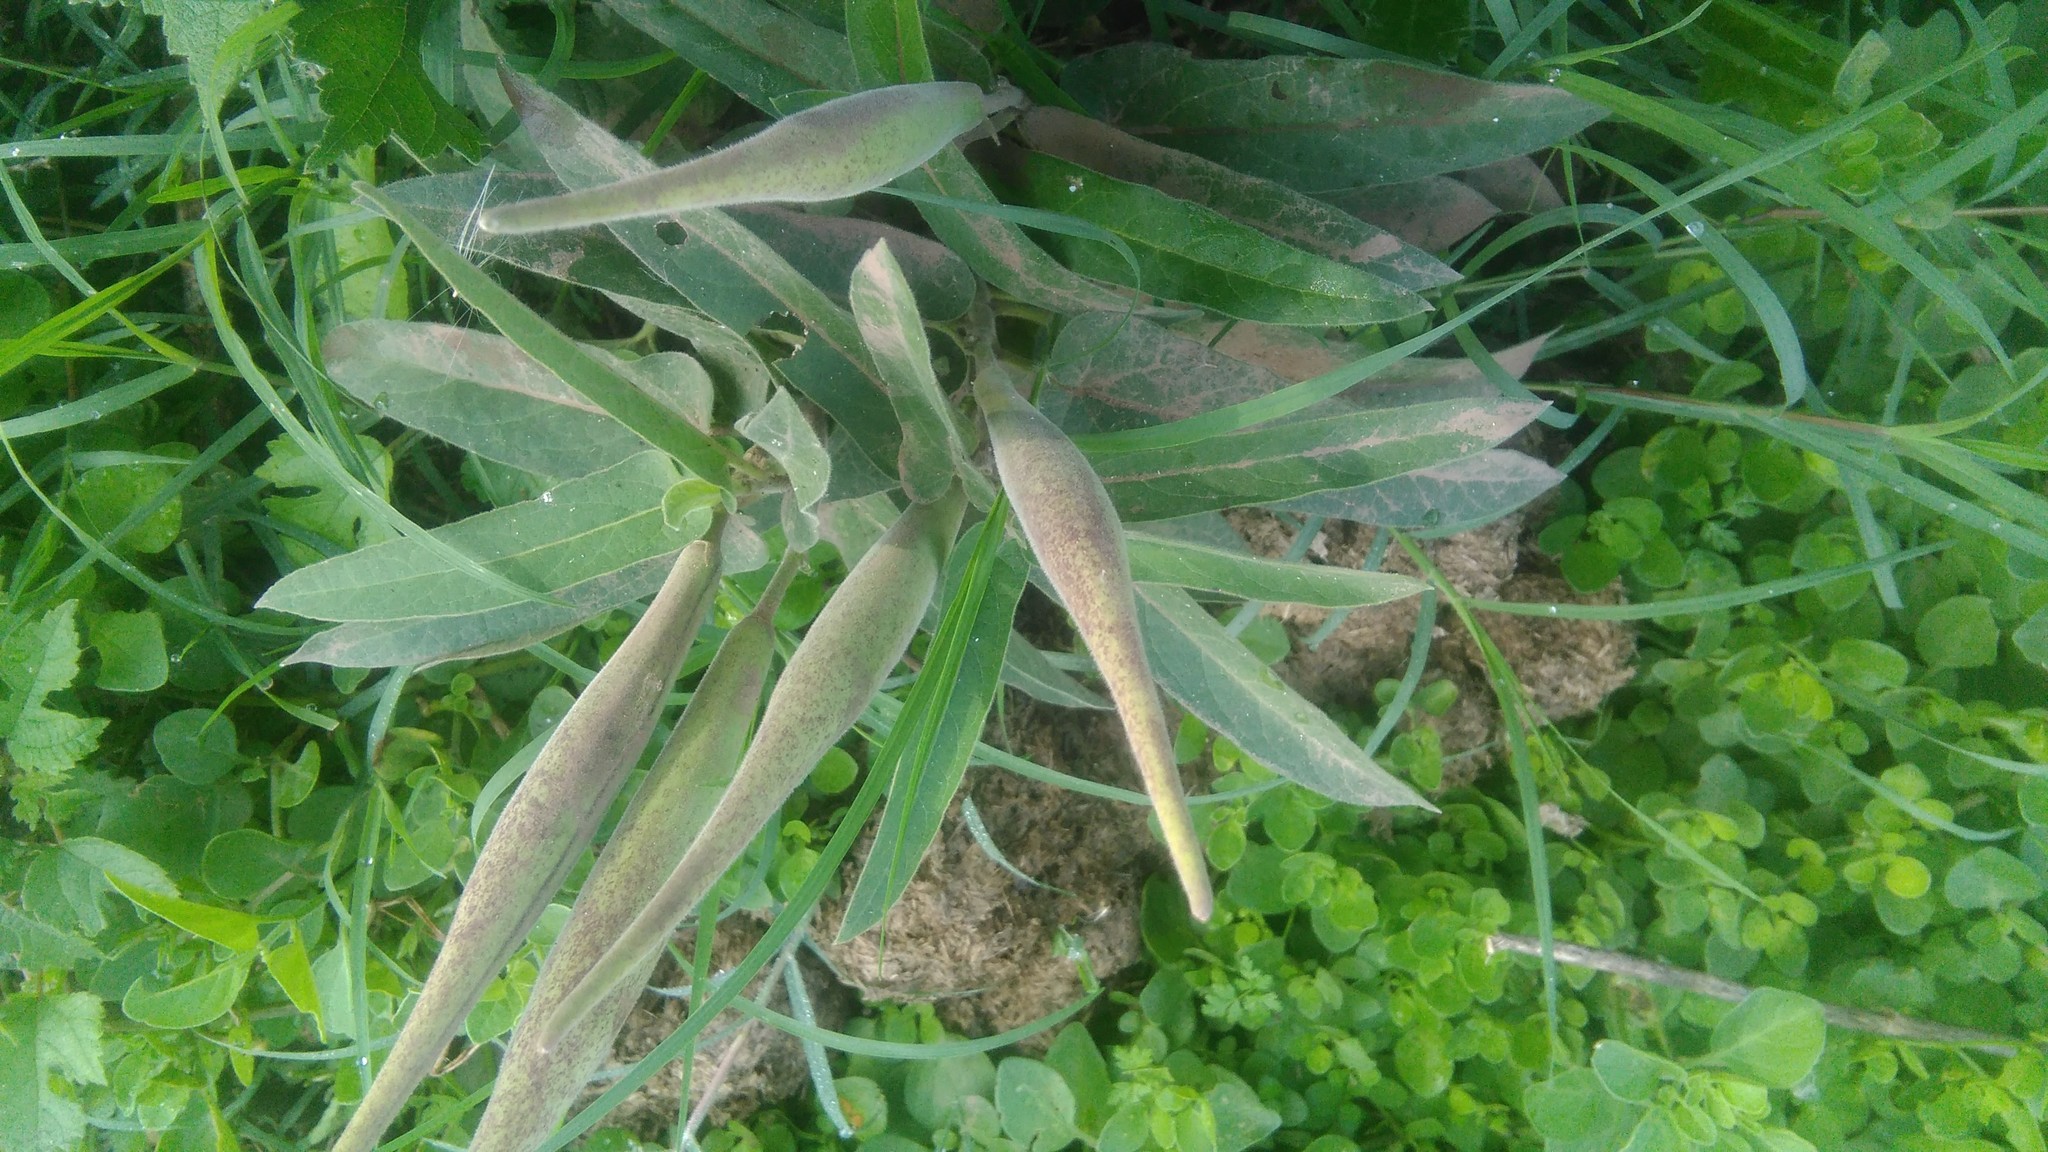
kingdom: Plantae
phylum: Tracheophyta
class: Magnoliopsida
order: Gentianales
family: Apocynaceae
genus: Oxypetalum
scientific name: Oxypetalum solanoides
